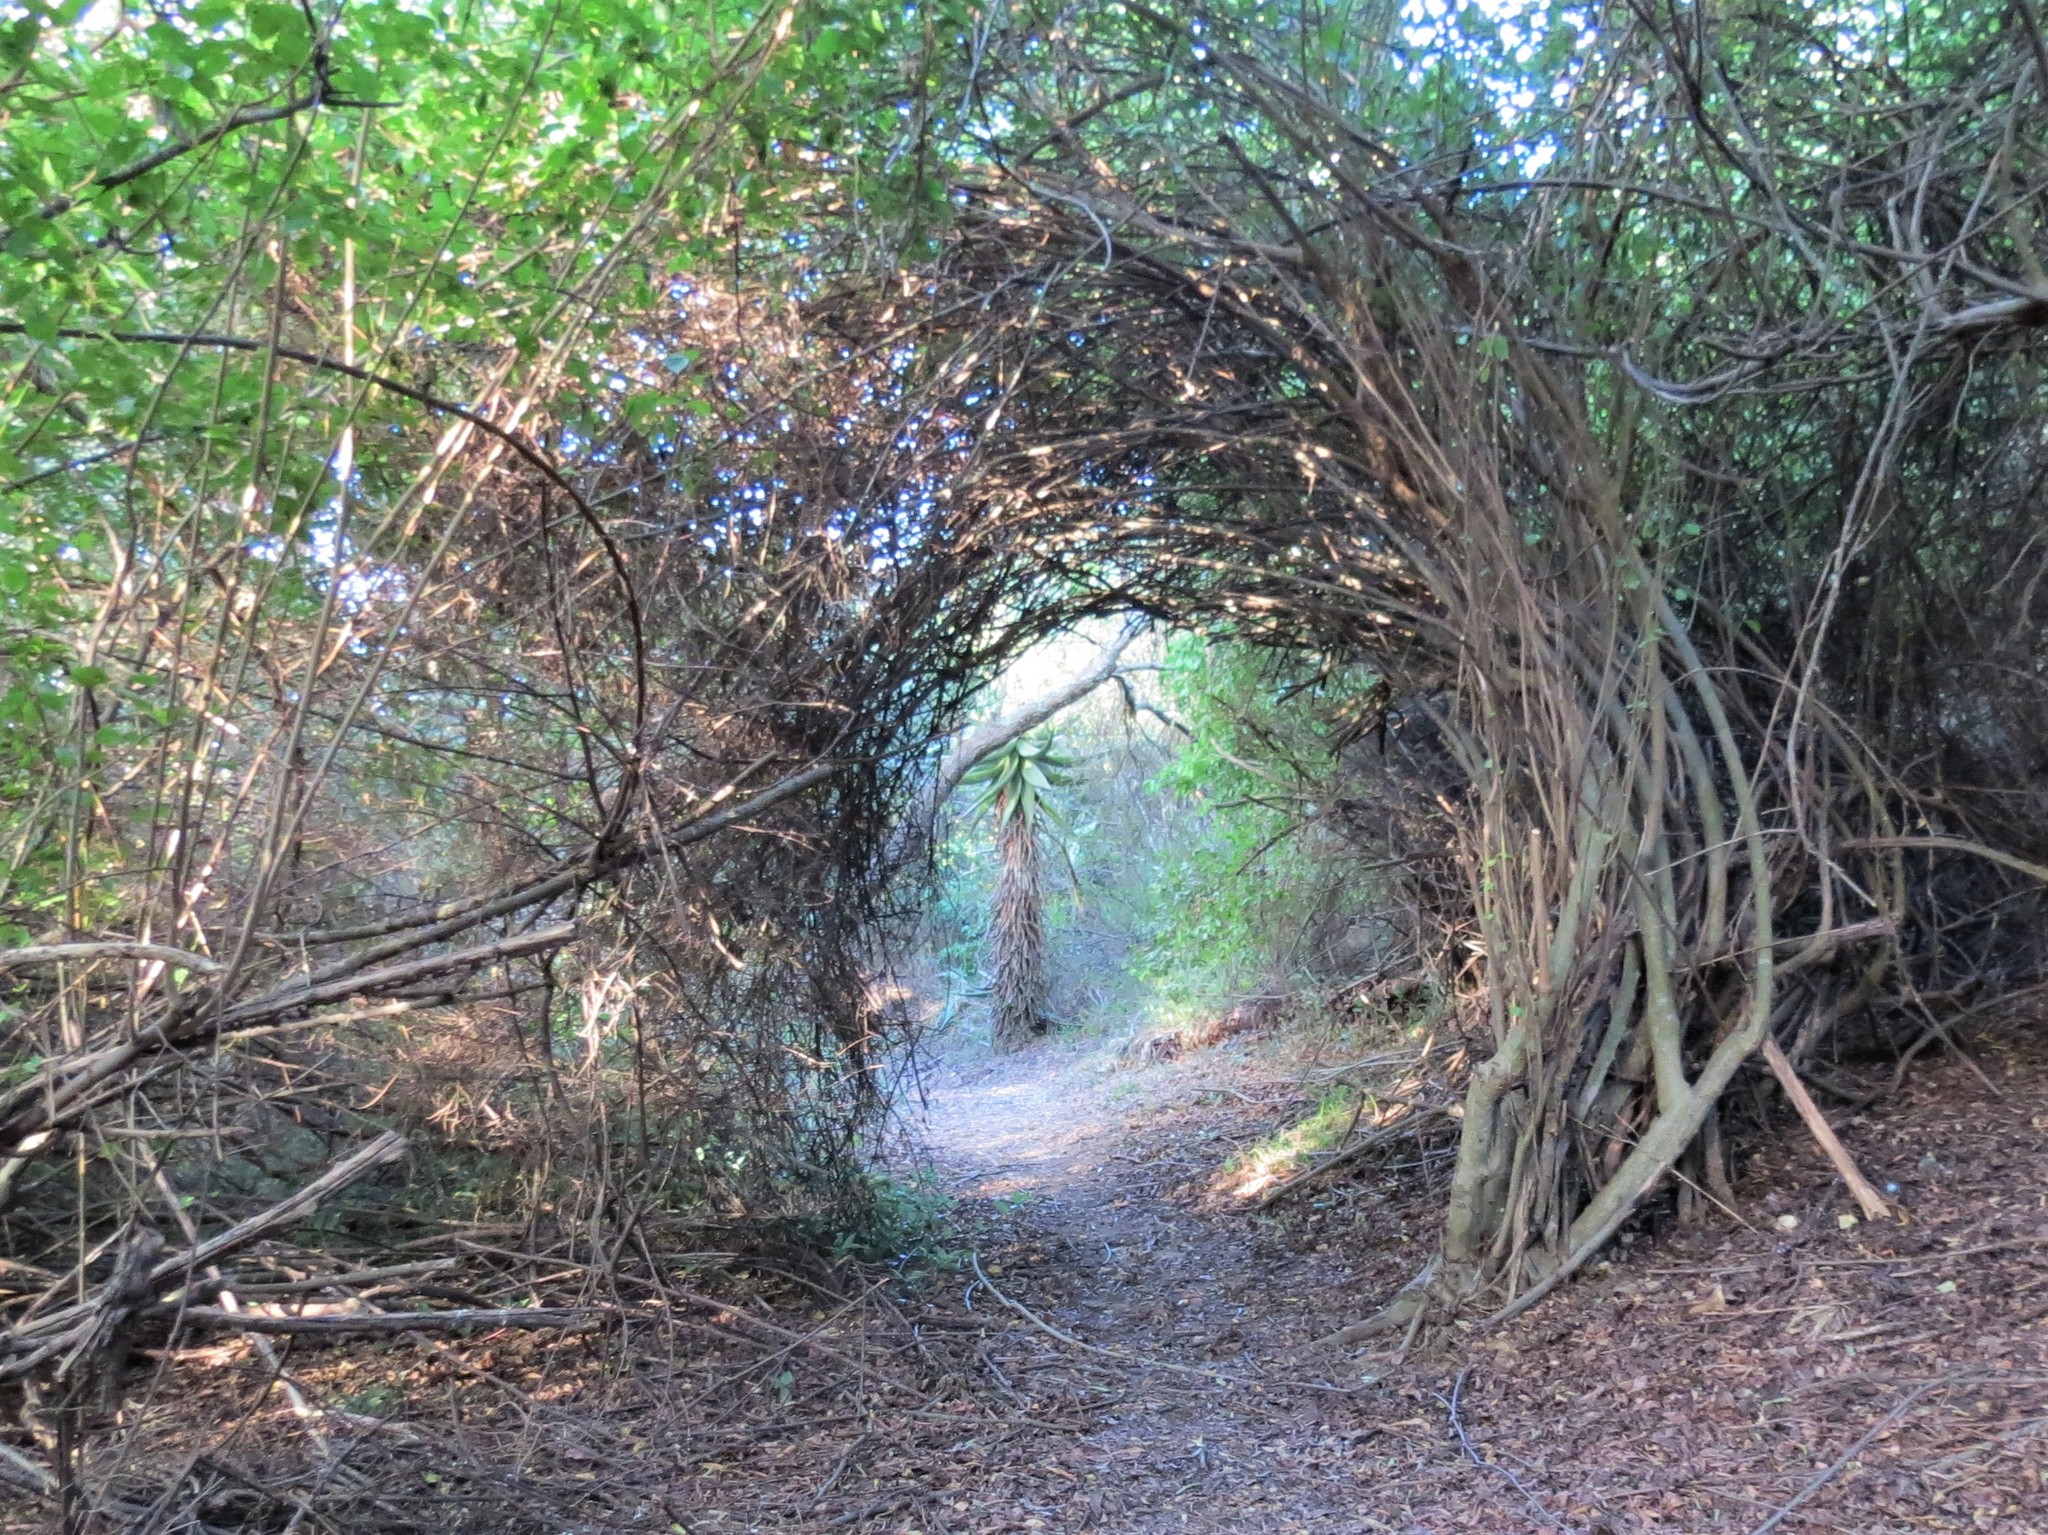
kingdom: Plantae
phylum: Tracheophyta
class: Liliopsida
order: Asparagales
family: Asphodelaceae
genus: Aloe
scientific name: Aloe ferox
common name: Bitter aloe
